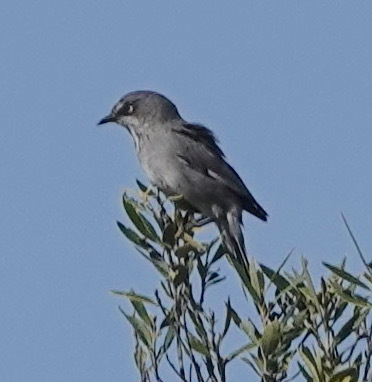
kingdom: Animalia
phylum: Chordata
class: Aves
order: Passeriformes
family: Sylviidae
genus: Sylvia
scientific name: Sylvia layardi
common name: Layard's warbler
